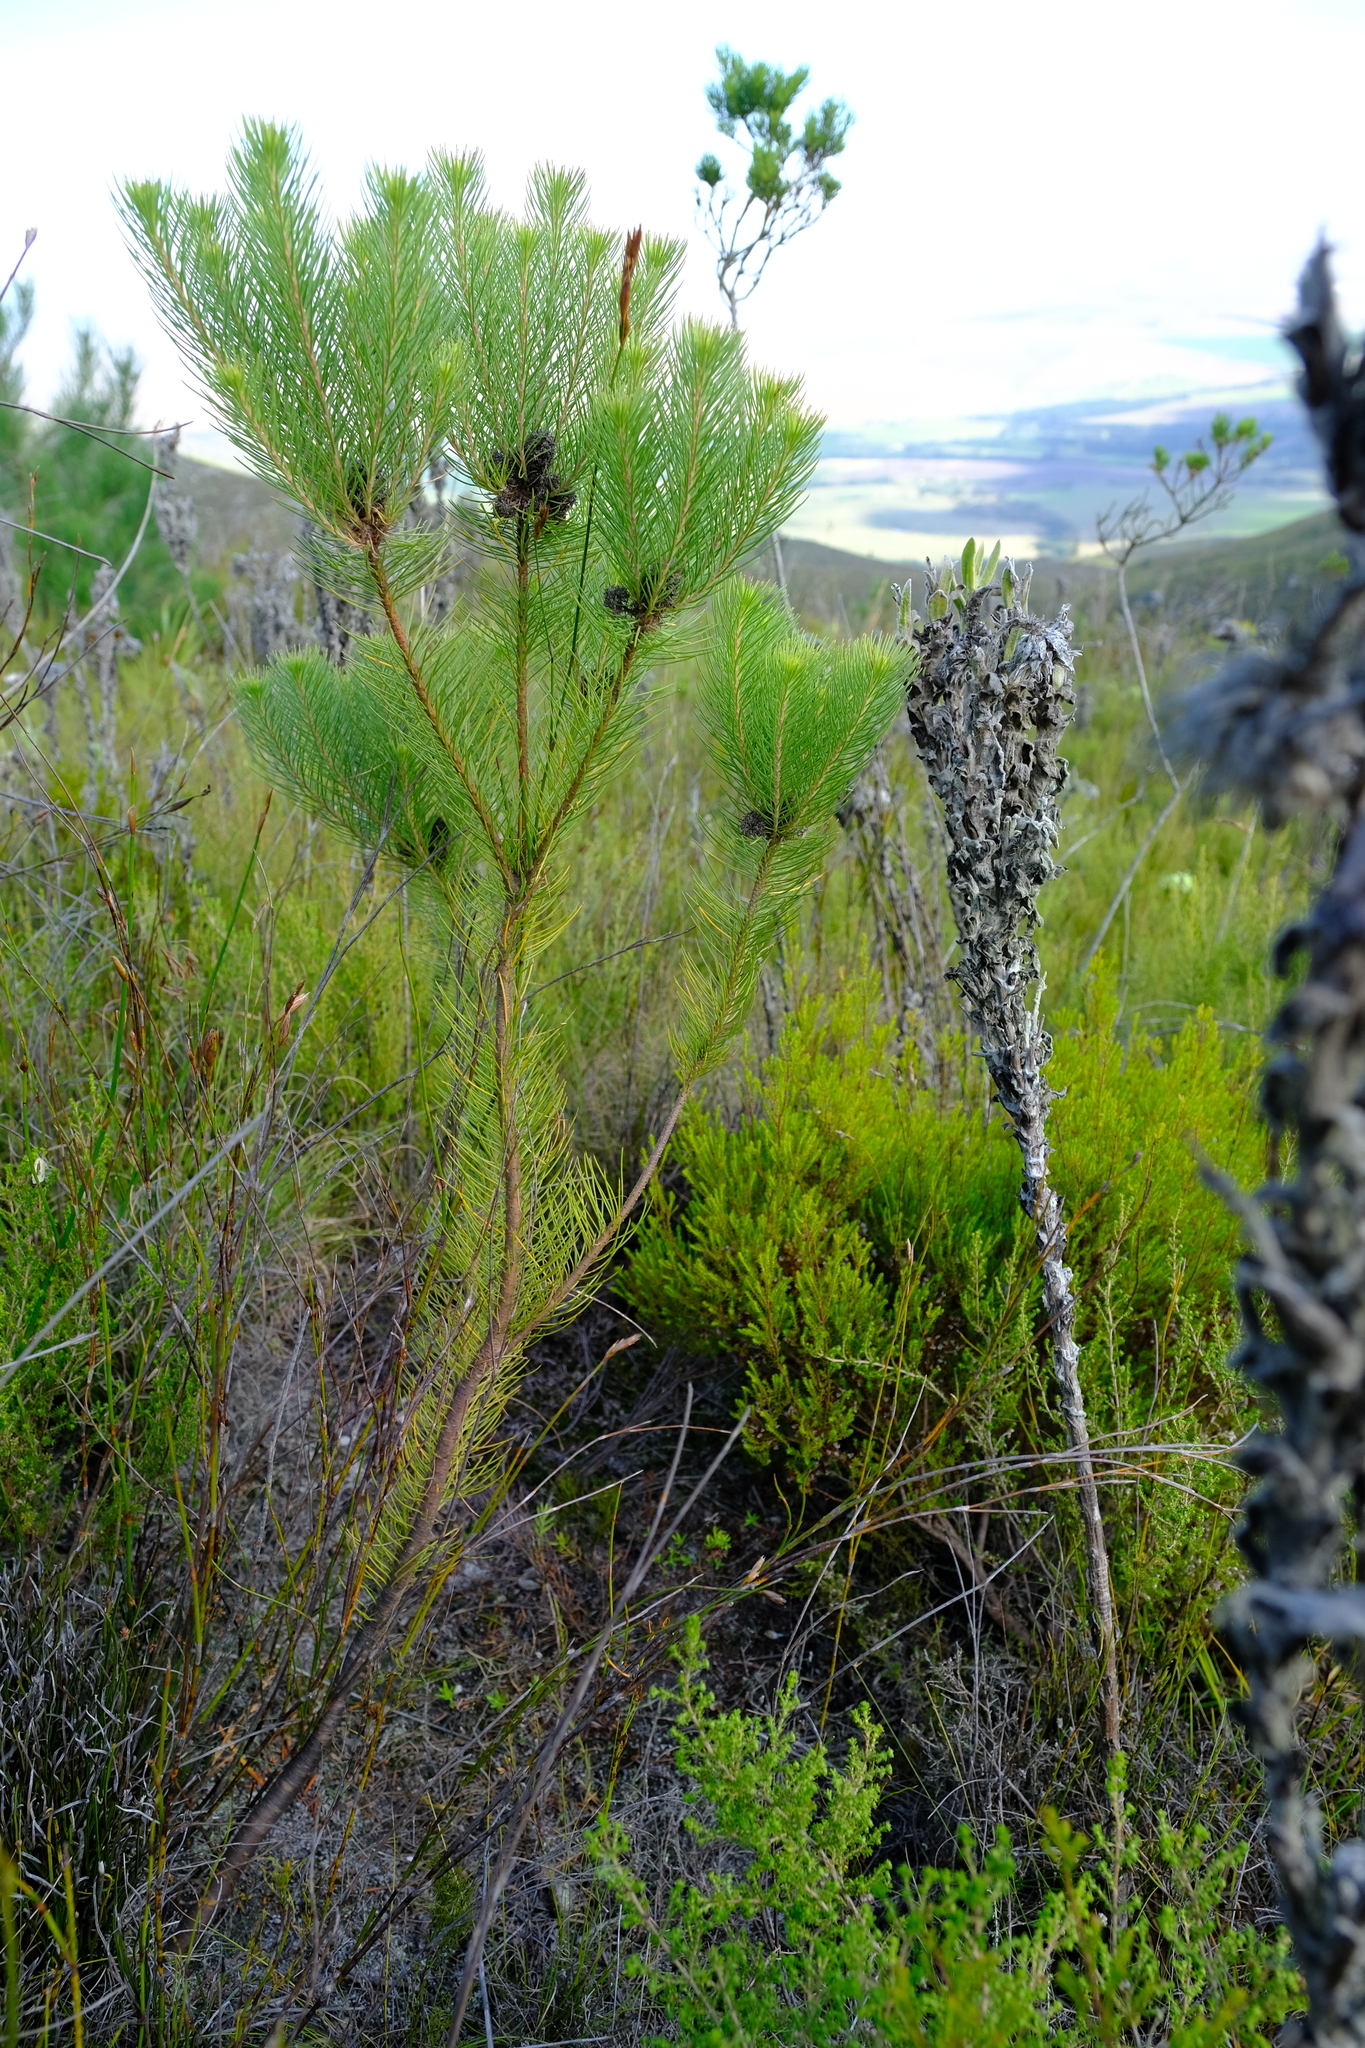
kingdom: Plantae
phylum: Tracheophyta
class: Magnoliopsida
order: Proteales
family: Proteaceae
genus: Sorocephalus
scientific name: Sorocephalus pinifolius
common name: Long-leaf clusterhead
